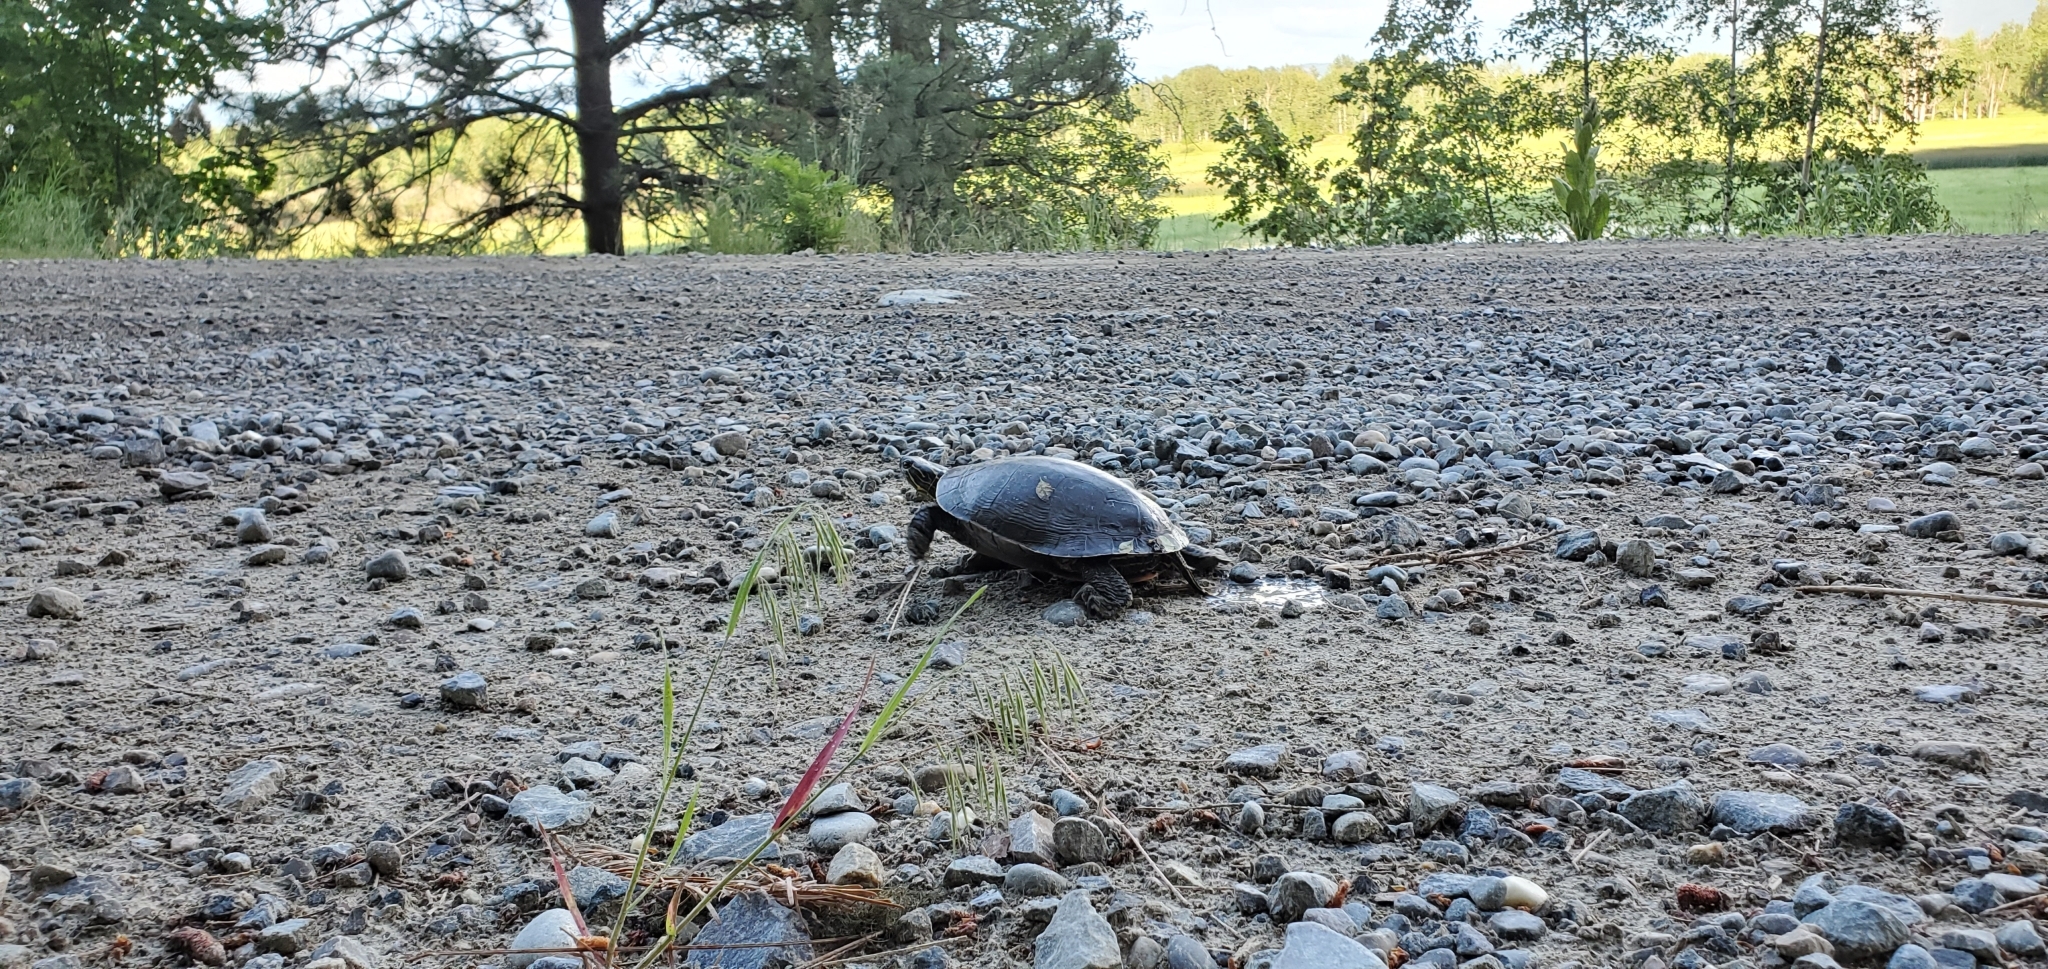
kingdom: Animalia
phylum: Chordata
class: Testudines
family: Emydidae
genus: Chrysemys
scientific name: Chrysemys picta
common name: Painted turtle
